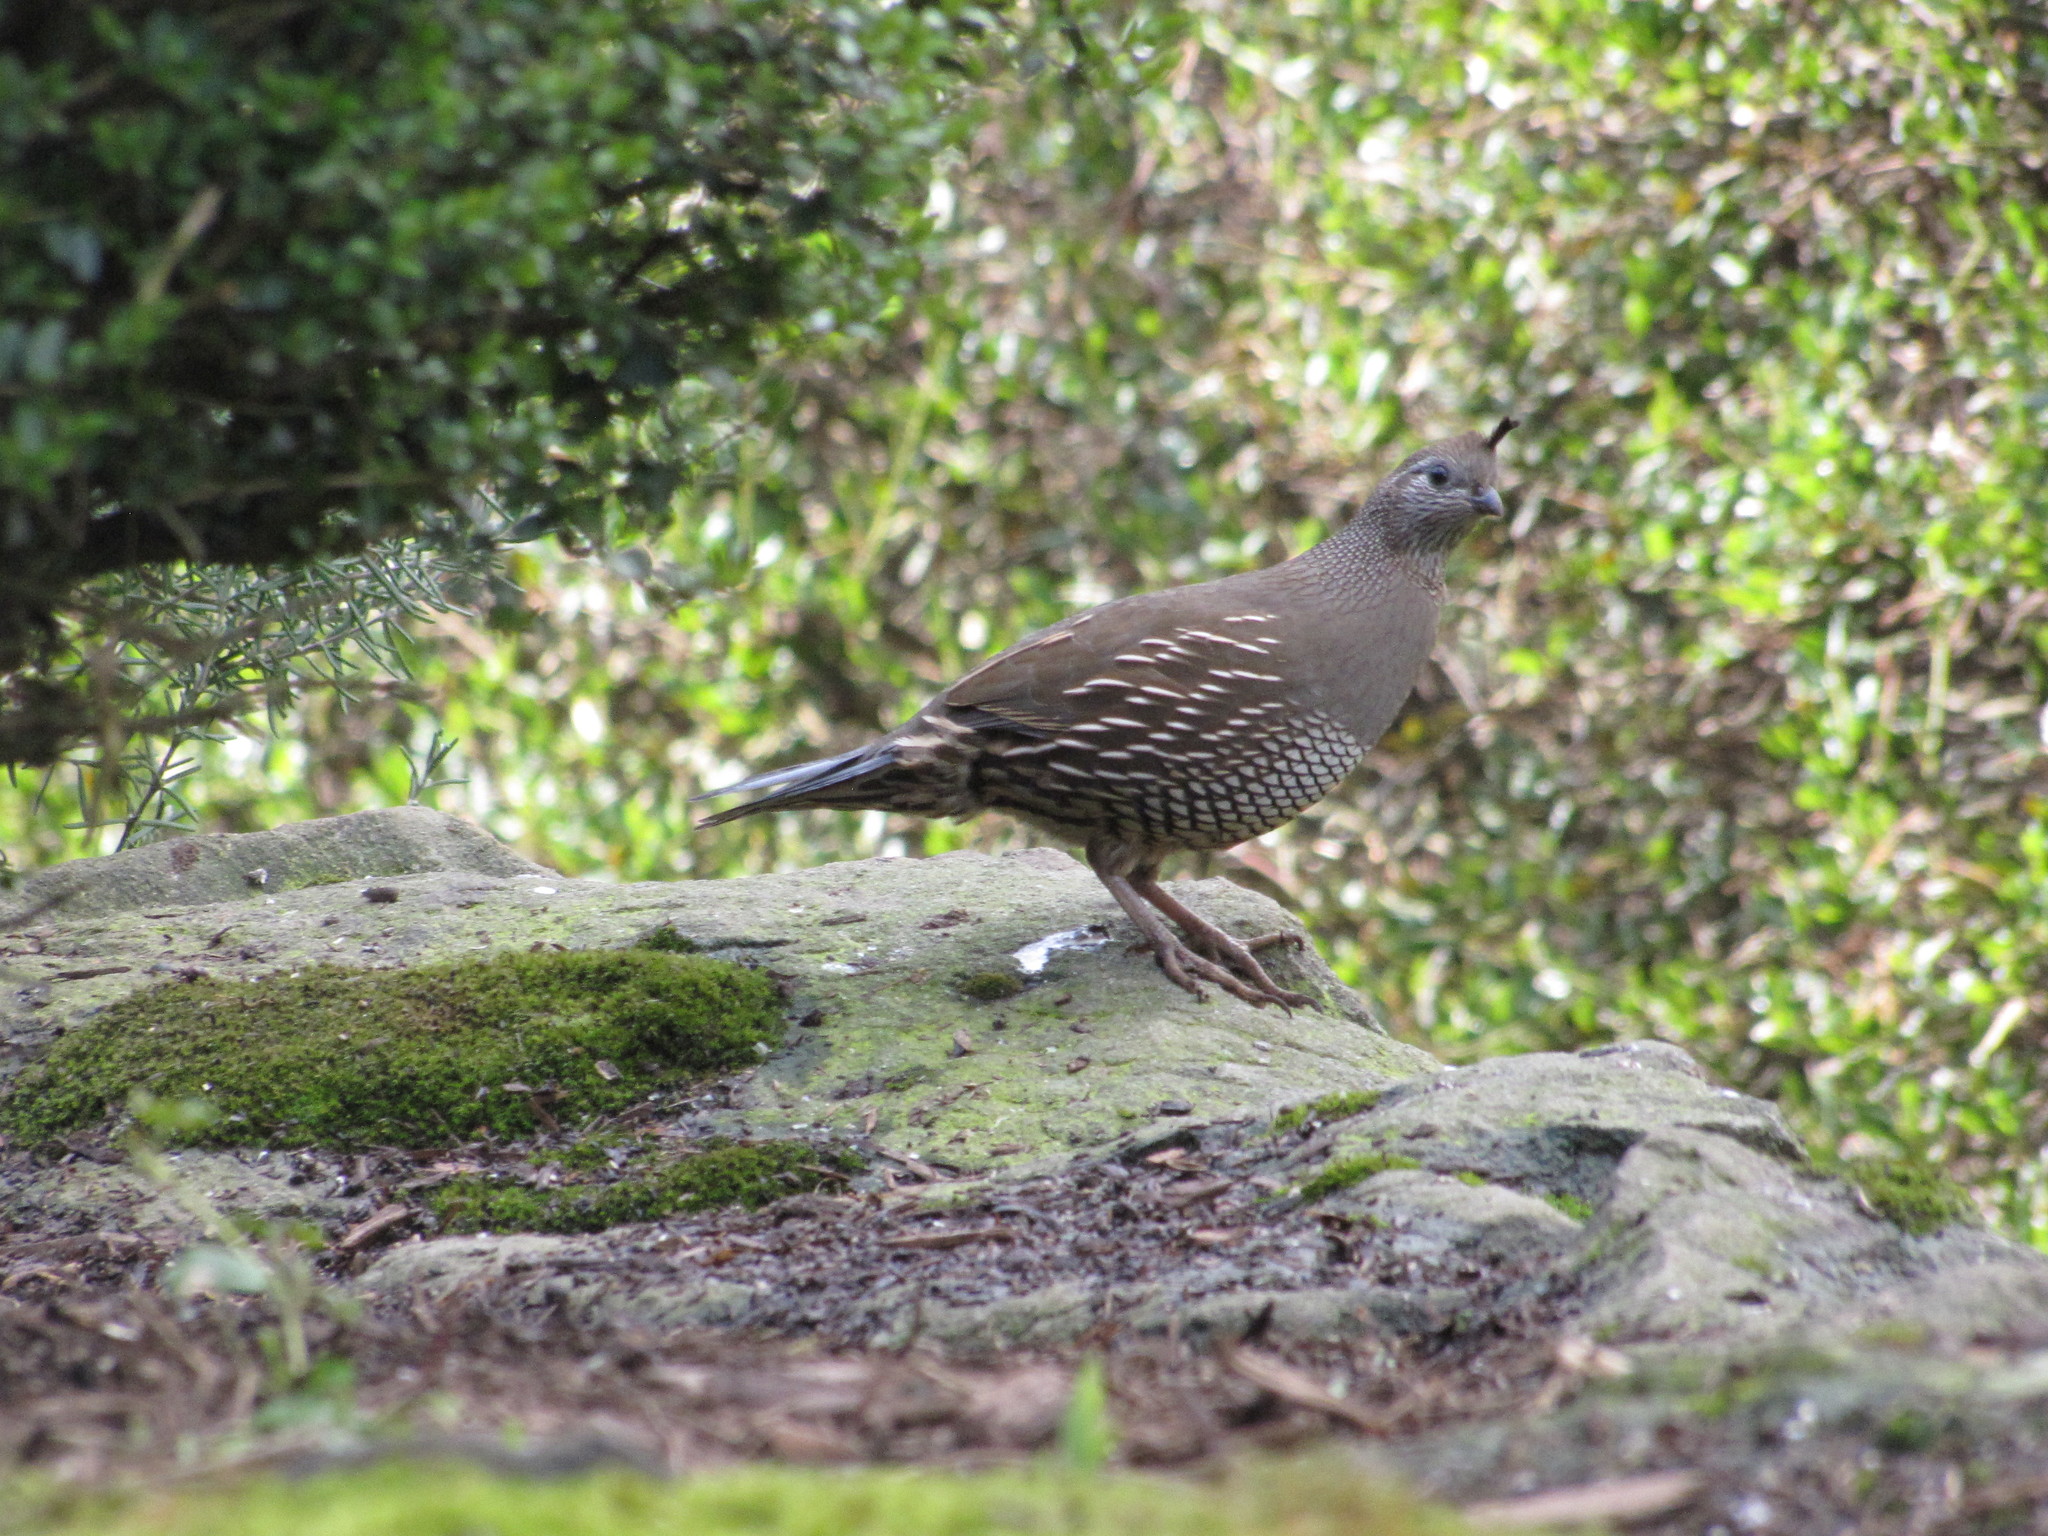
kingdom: Animalia
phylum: Chordata
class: Aves
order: Galliformes
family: Odontophoridae
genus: Callipepla
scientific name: Callipepla californica
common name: California quail
